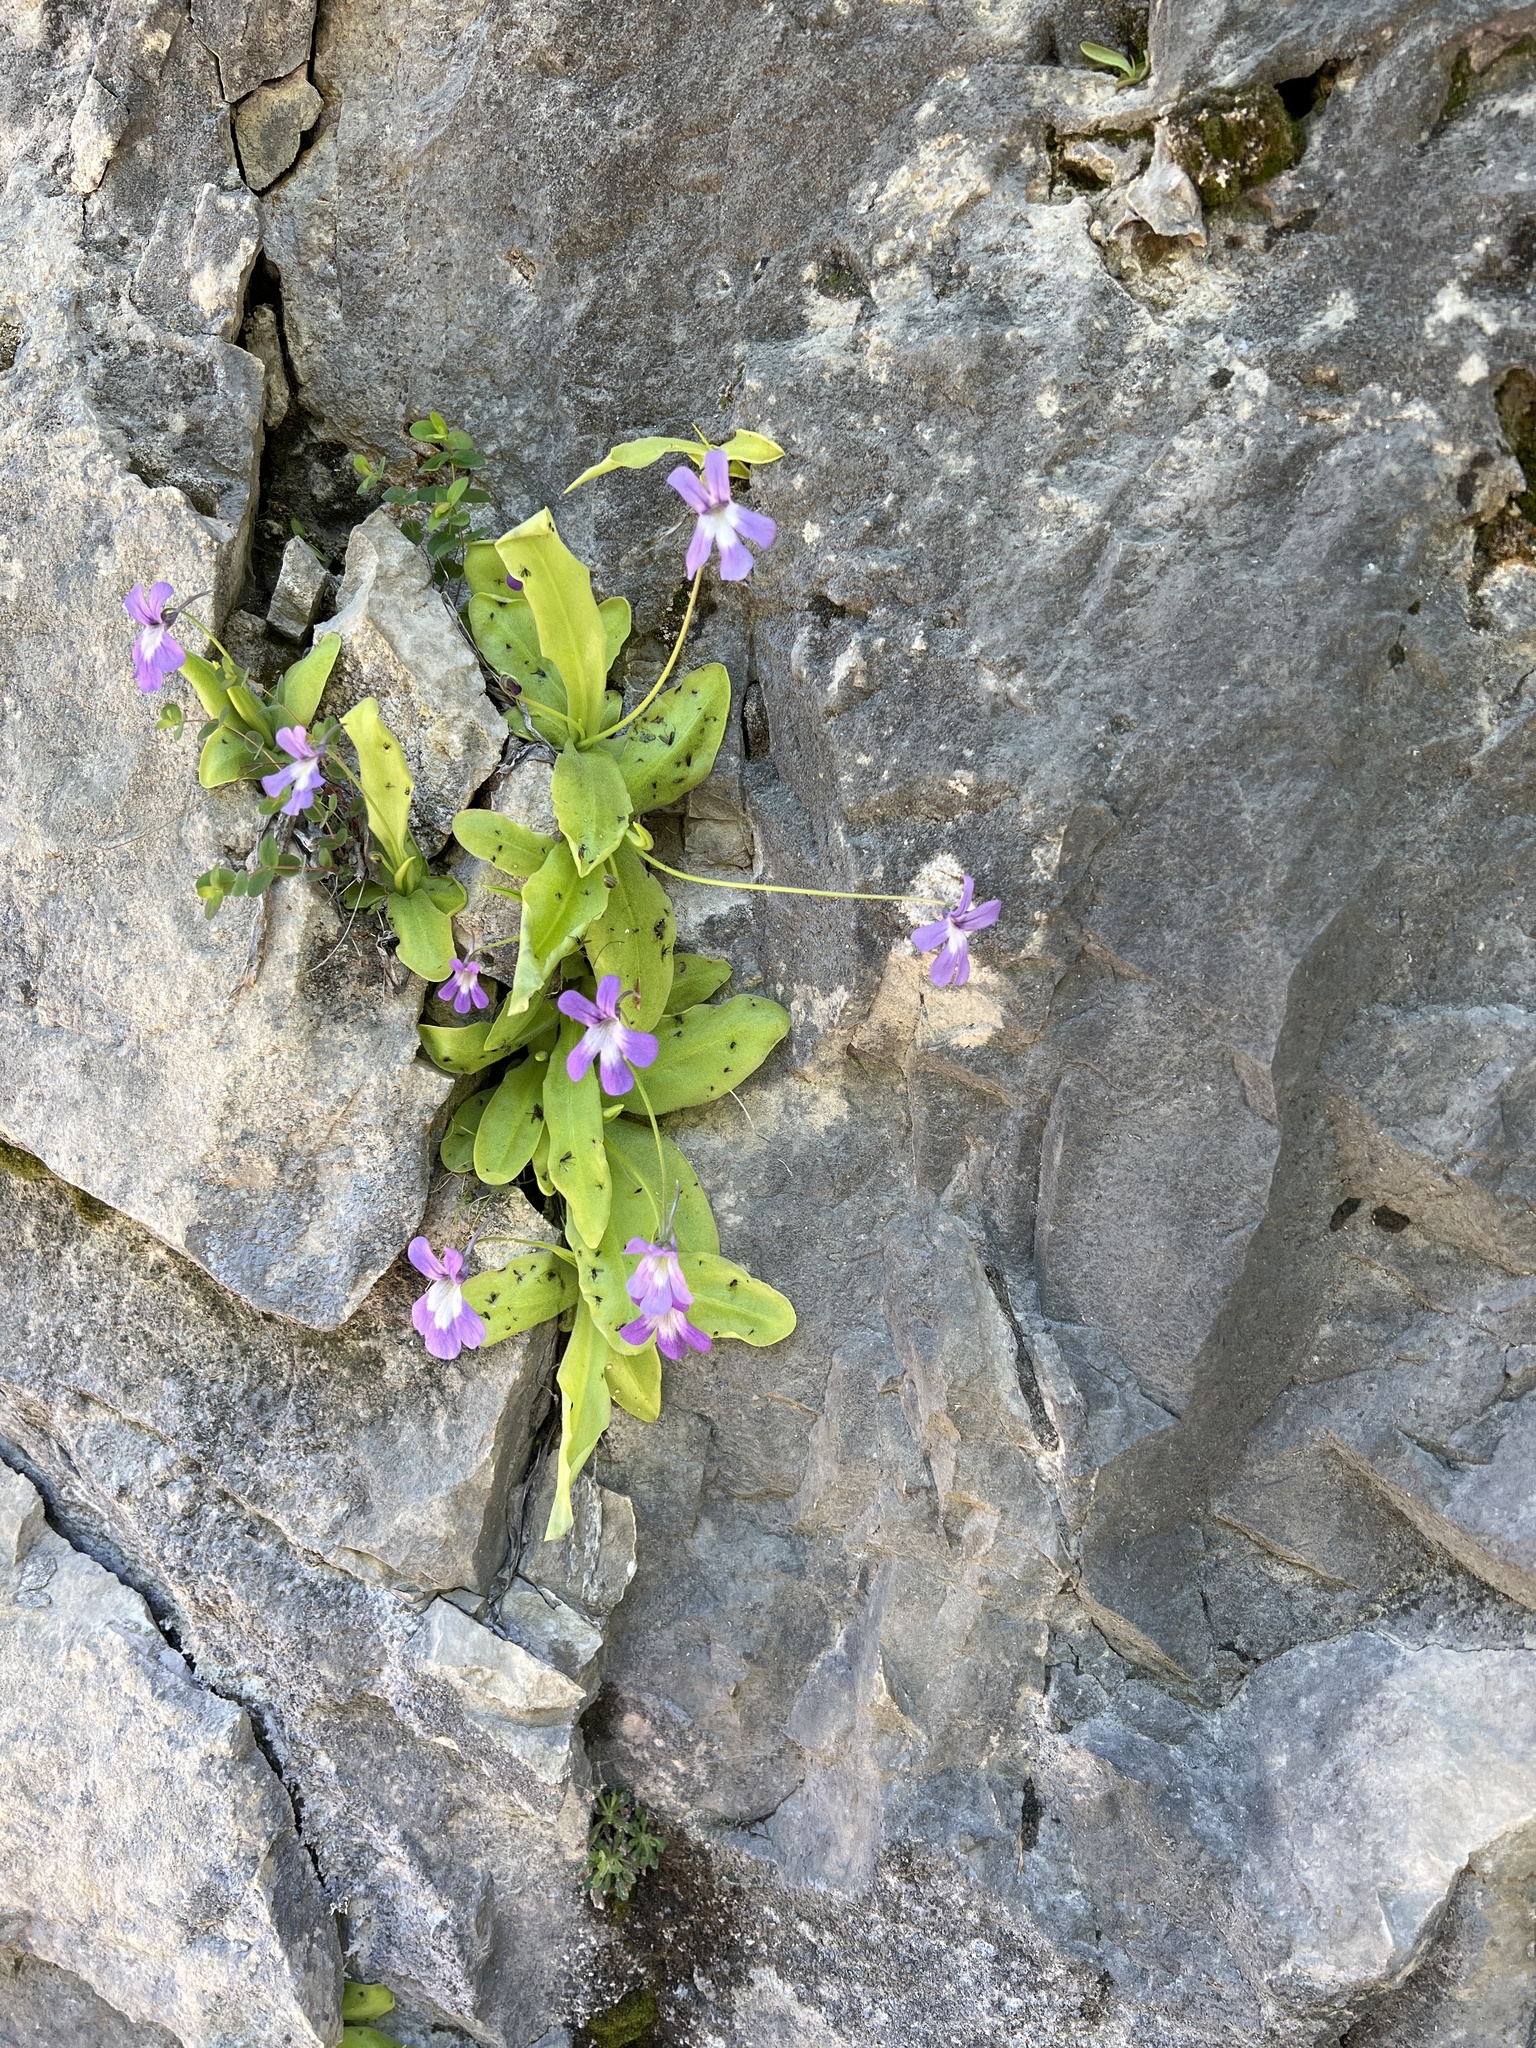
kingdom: Plantae
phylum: Tracheophyta
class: Magnoliopsida
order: Lamiales
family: Lentibulariaceae
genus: Pinguicula
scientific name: Pinguicula longifolia
